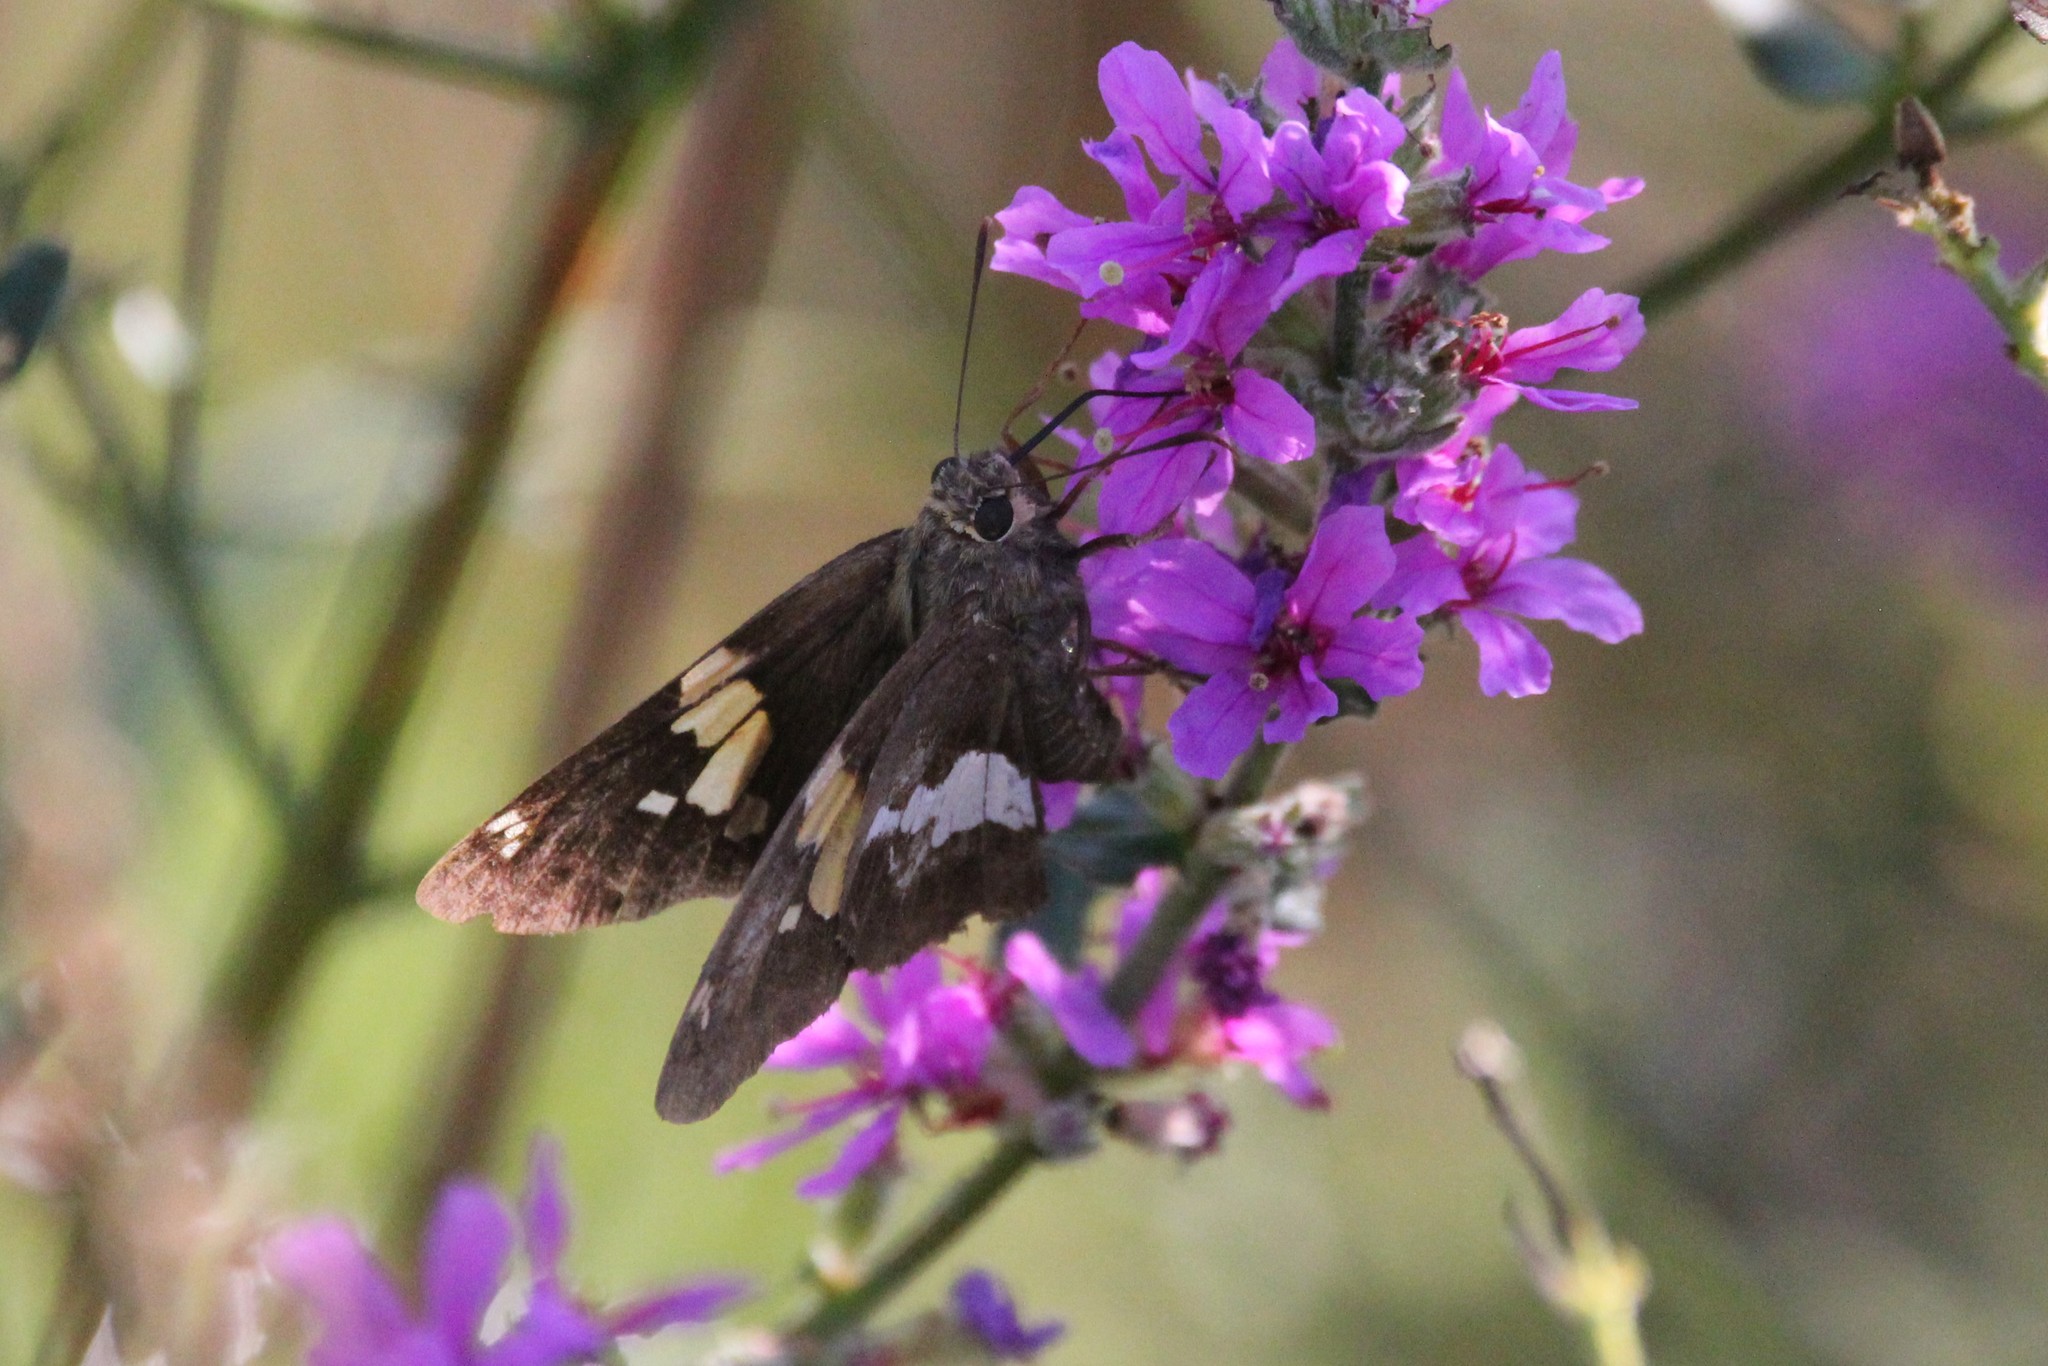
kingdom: Animalia
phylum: Arthropoda
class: Insecta
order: Lepidoptera
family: Hesperiidae
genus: Epargyreus
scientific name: Epargyreus clarus
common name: Silver-spotted skipper
